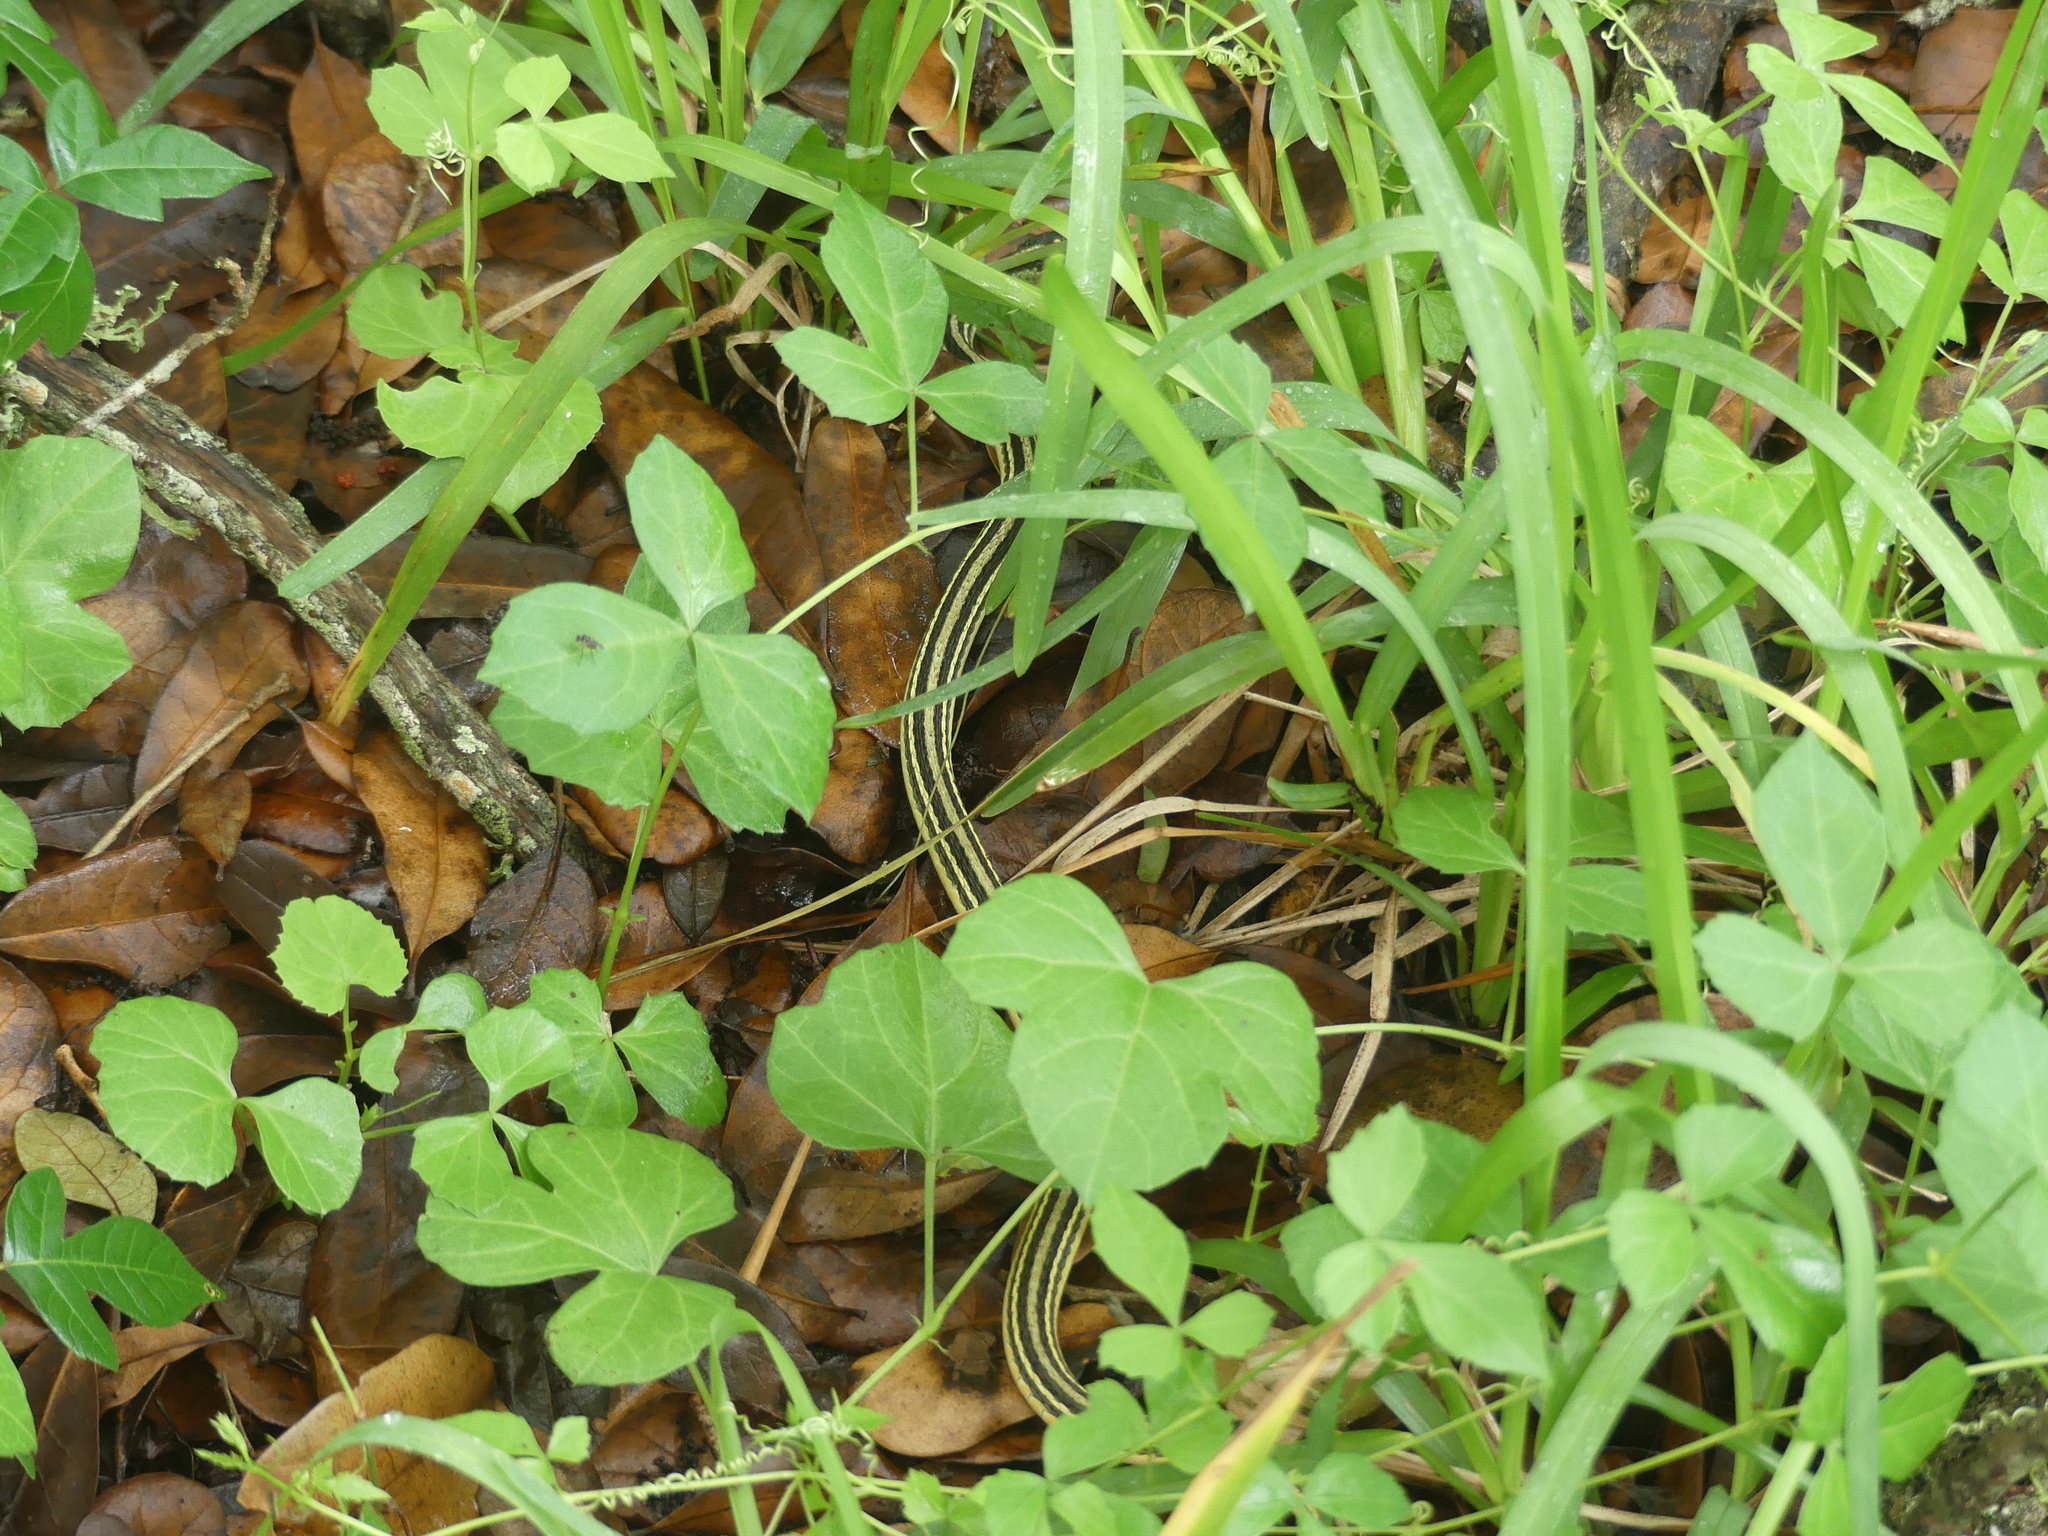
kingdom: Animalia
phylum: Chordata
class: Squamata
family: Colubridae
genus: Thamnophis
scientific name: Thamnophis proximus
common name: Western ribbon snake
